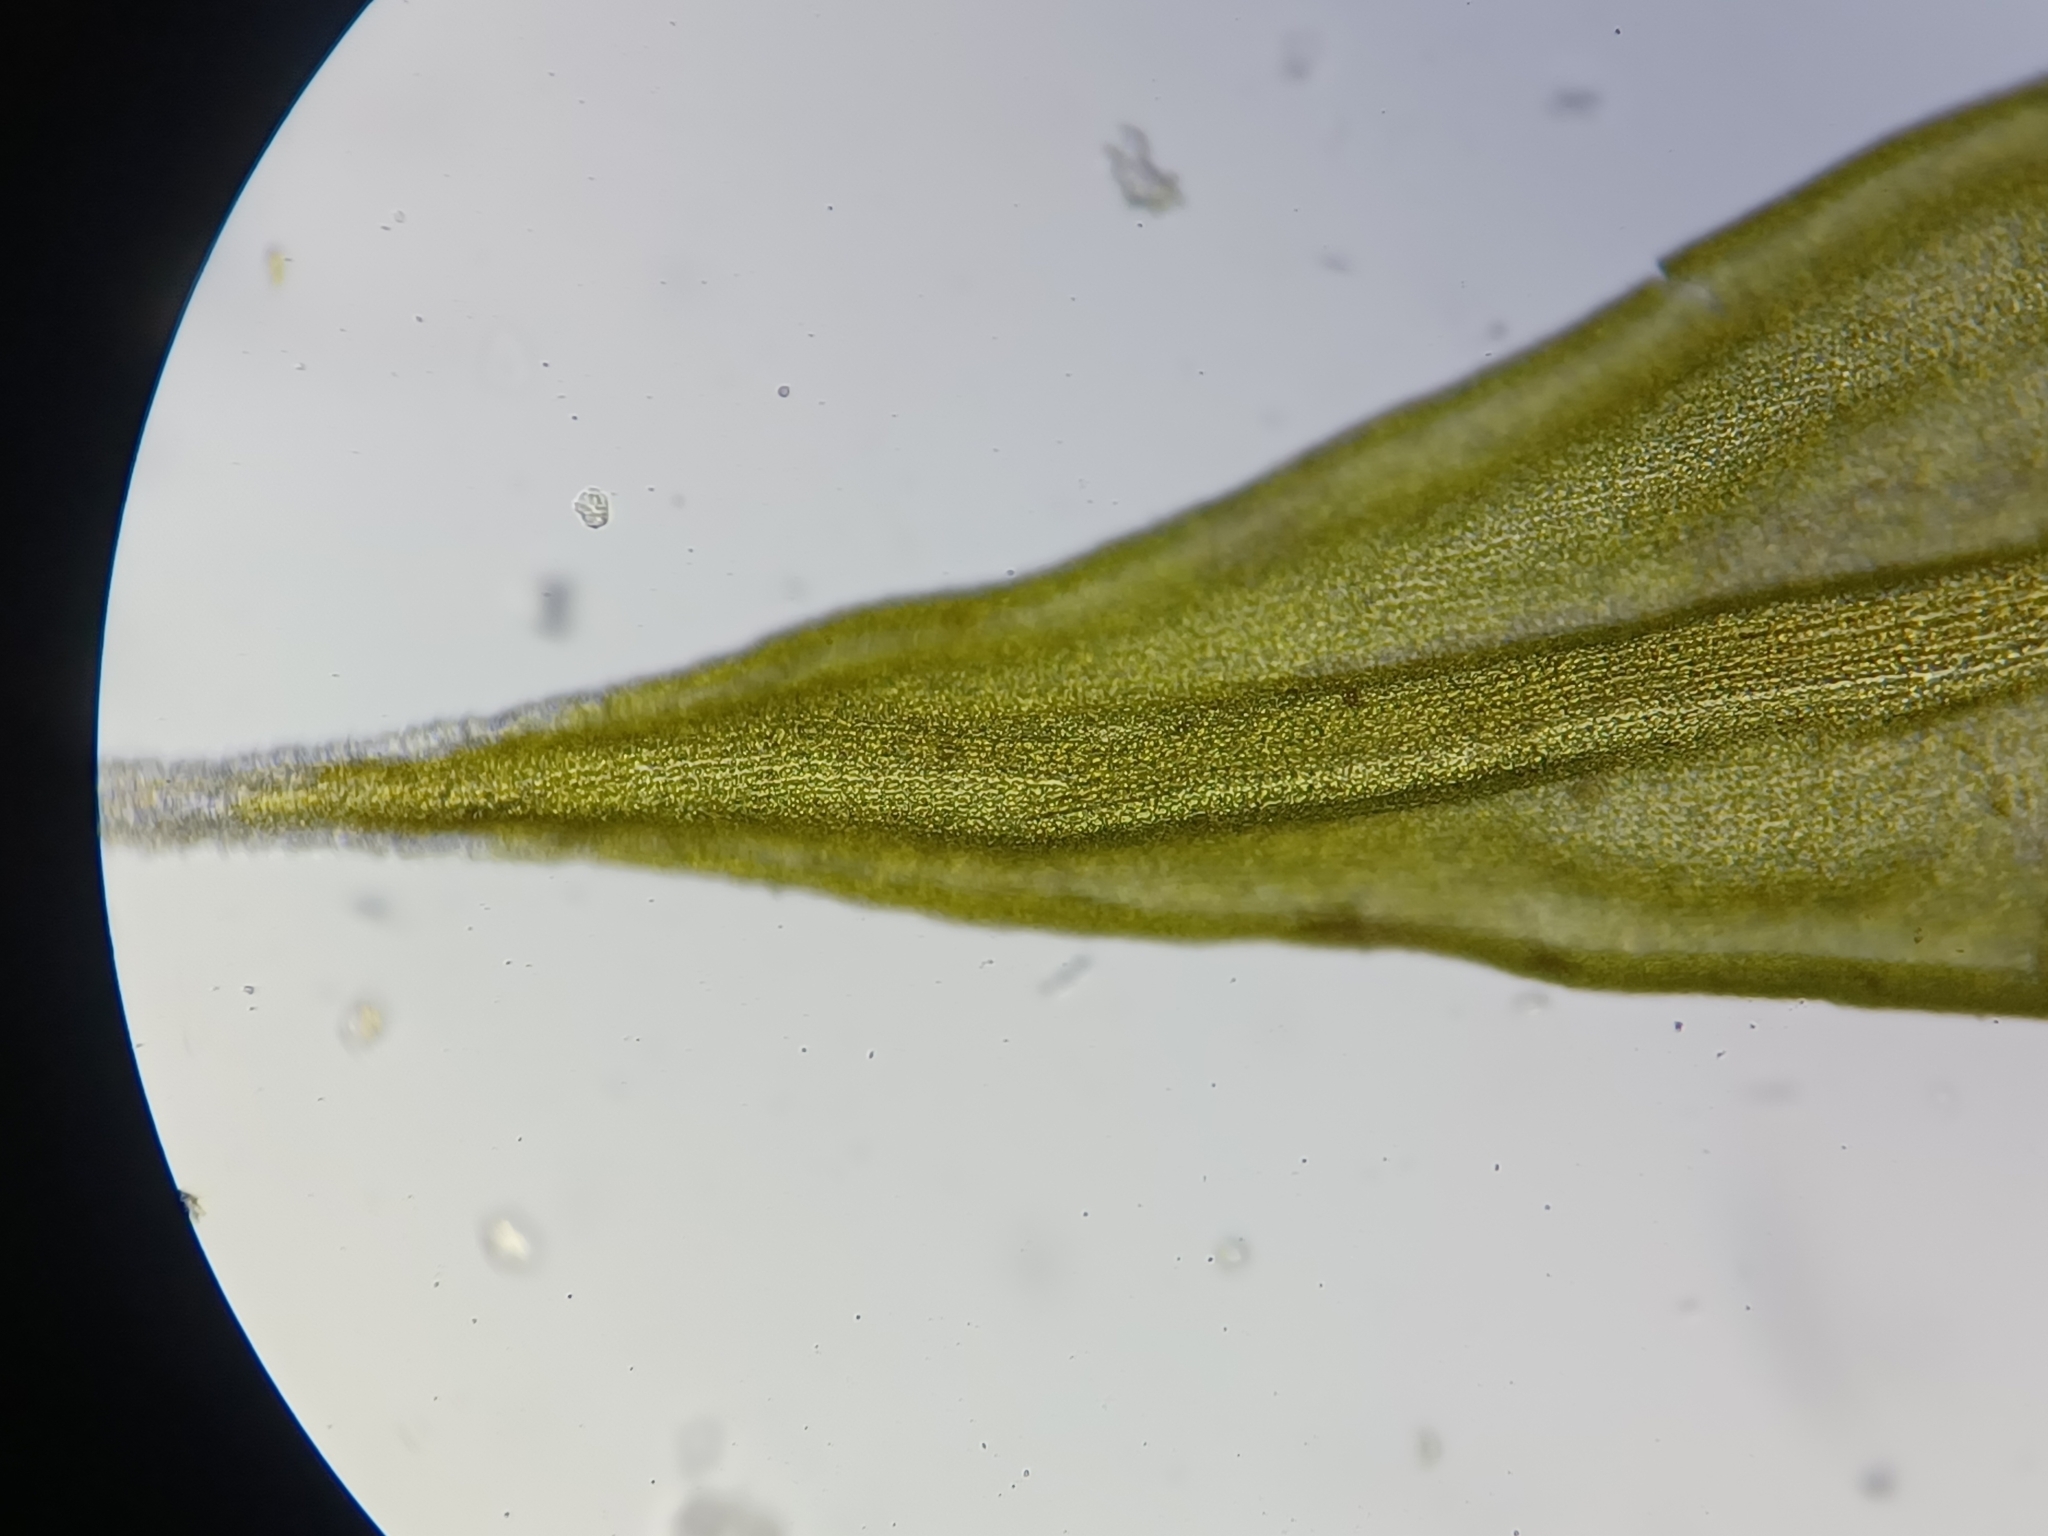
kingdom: Plantae
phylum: Bryophyta
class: Bryopsida
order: Grimmiales
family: Grimmiaceae
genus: Niphotrichum
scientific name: Niphotrichum canescens
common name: Hoary fringe-moss
